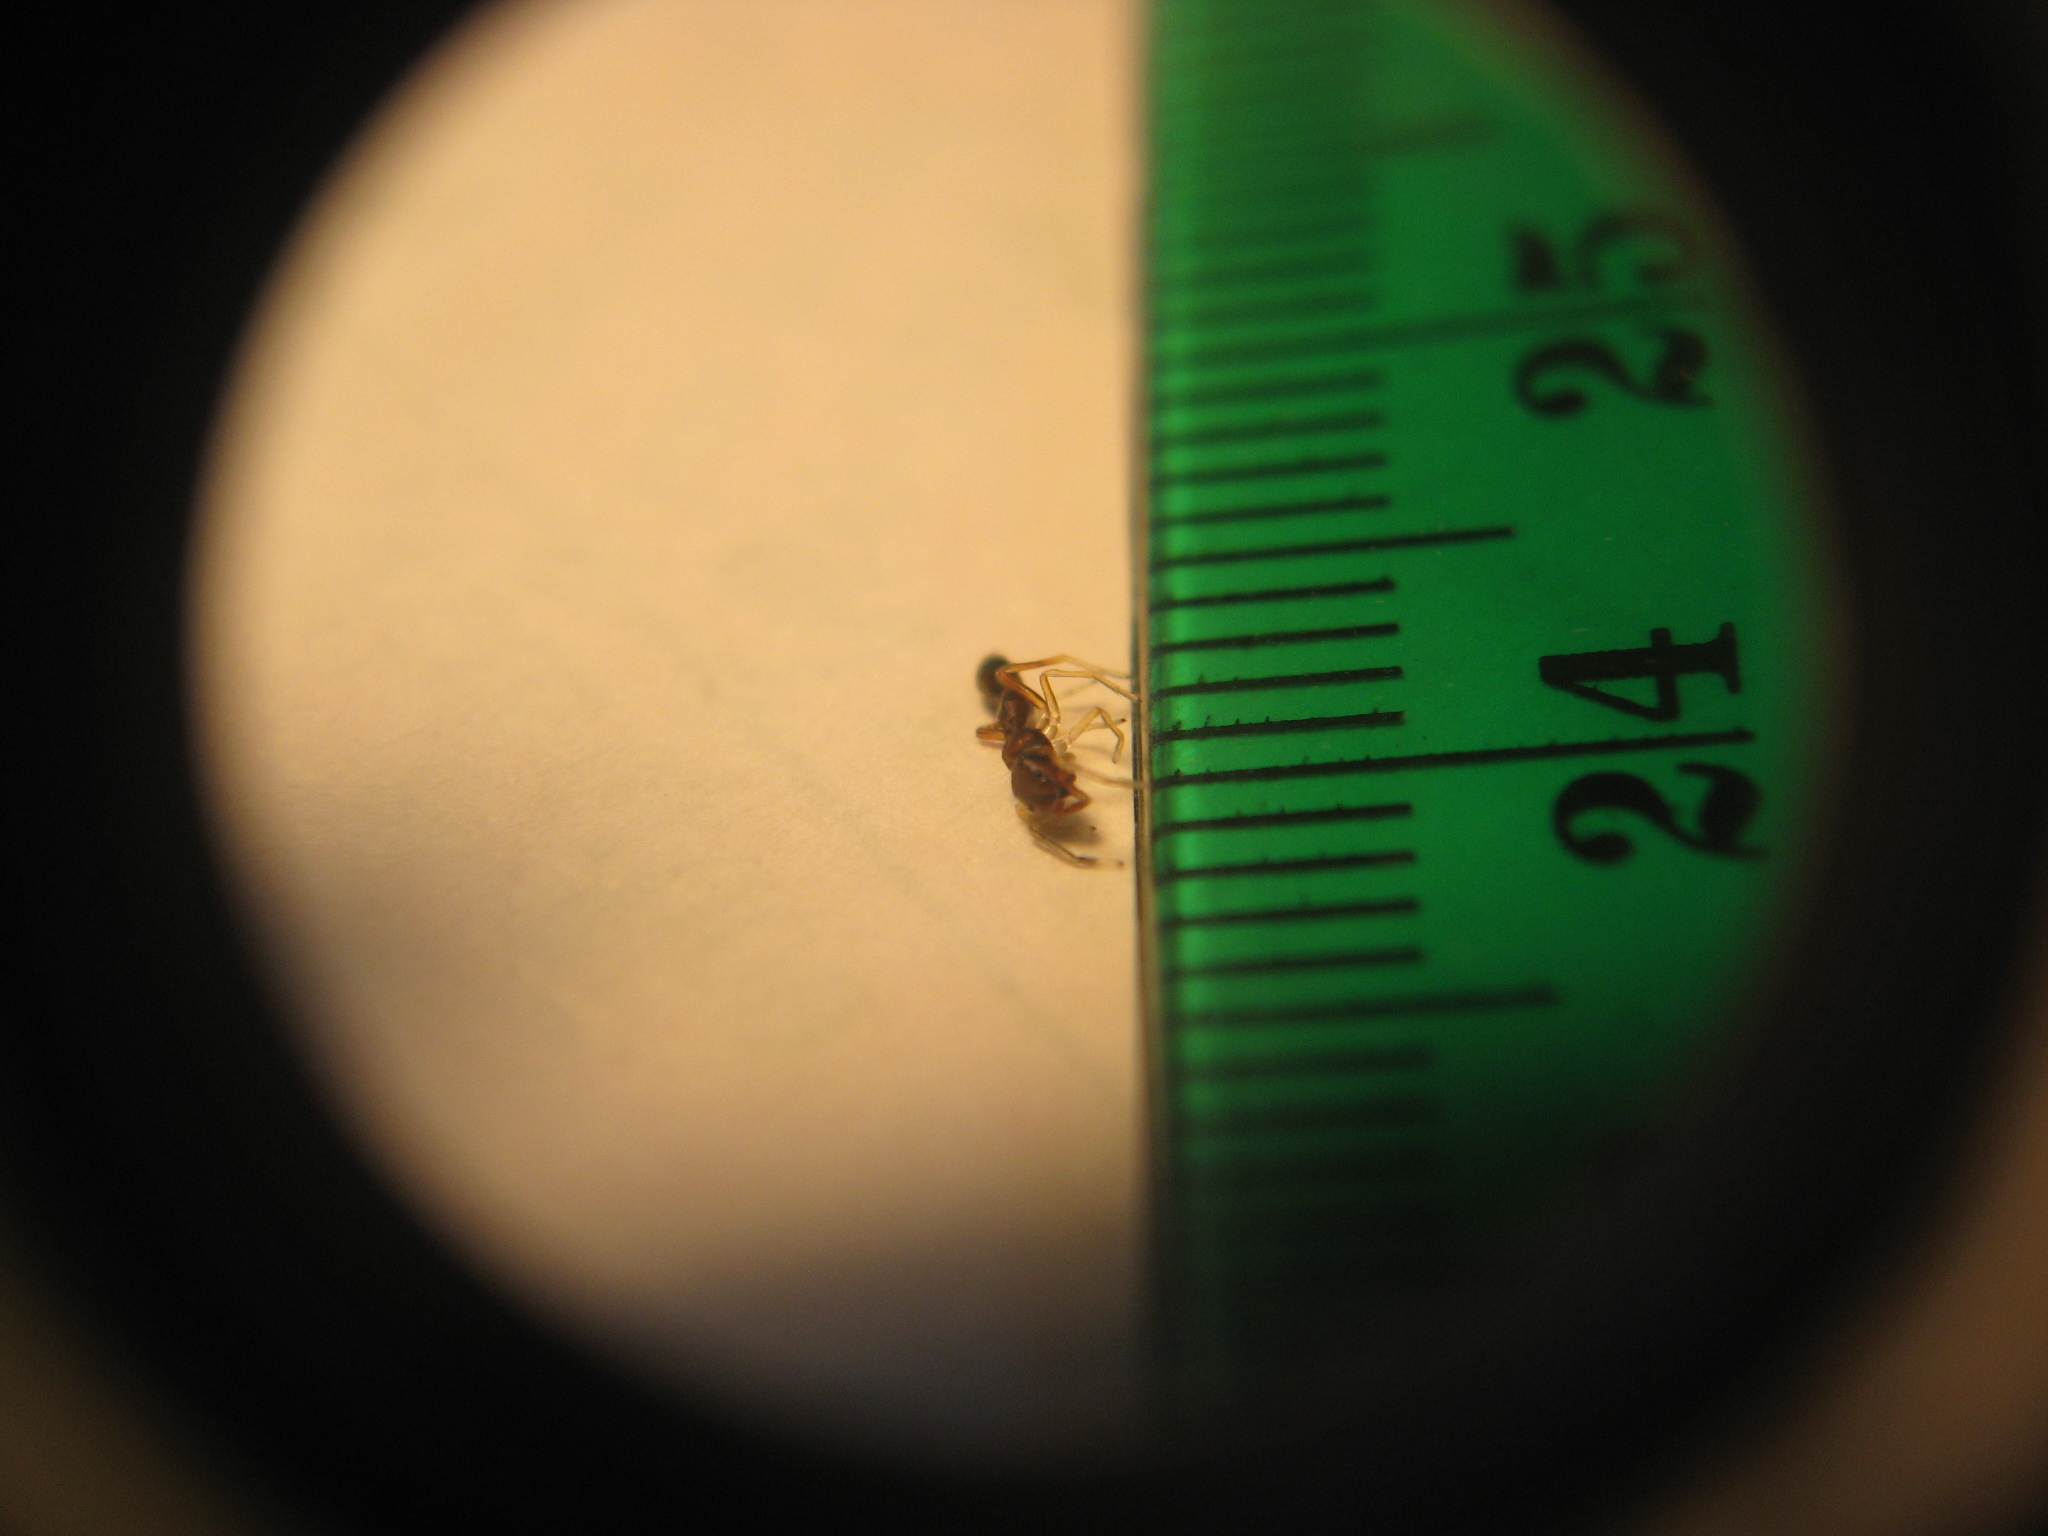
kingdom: Animalia
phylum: Arthropoda
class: Arachnida
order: Araneae
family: Salticidae
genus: Synemosyna
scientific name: Synemosyna formica
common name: Slender ant-mimic jumping spider
